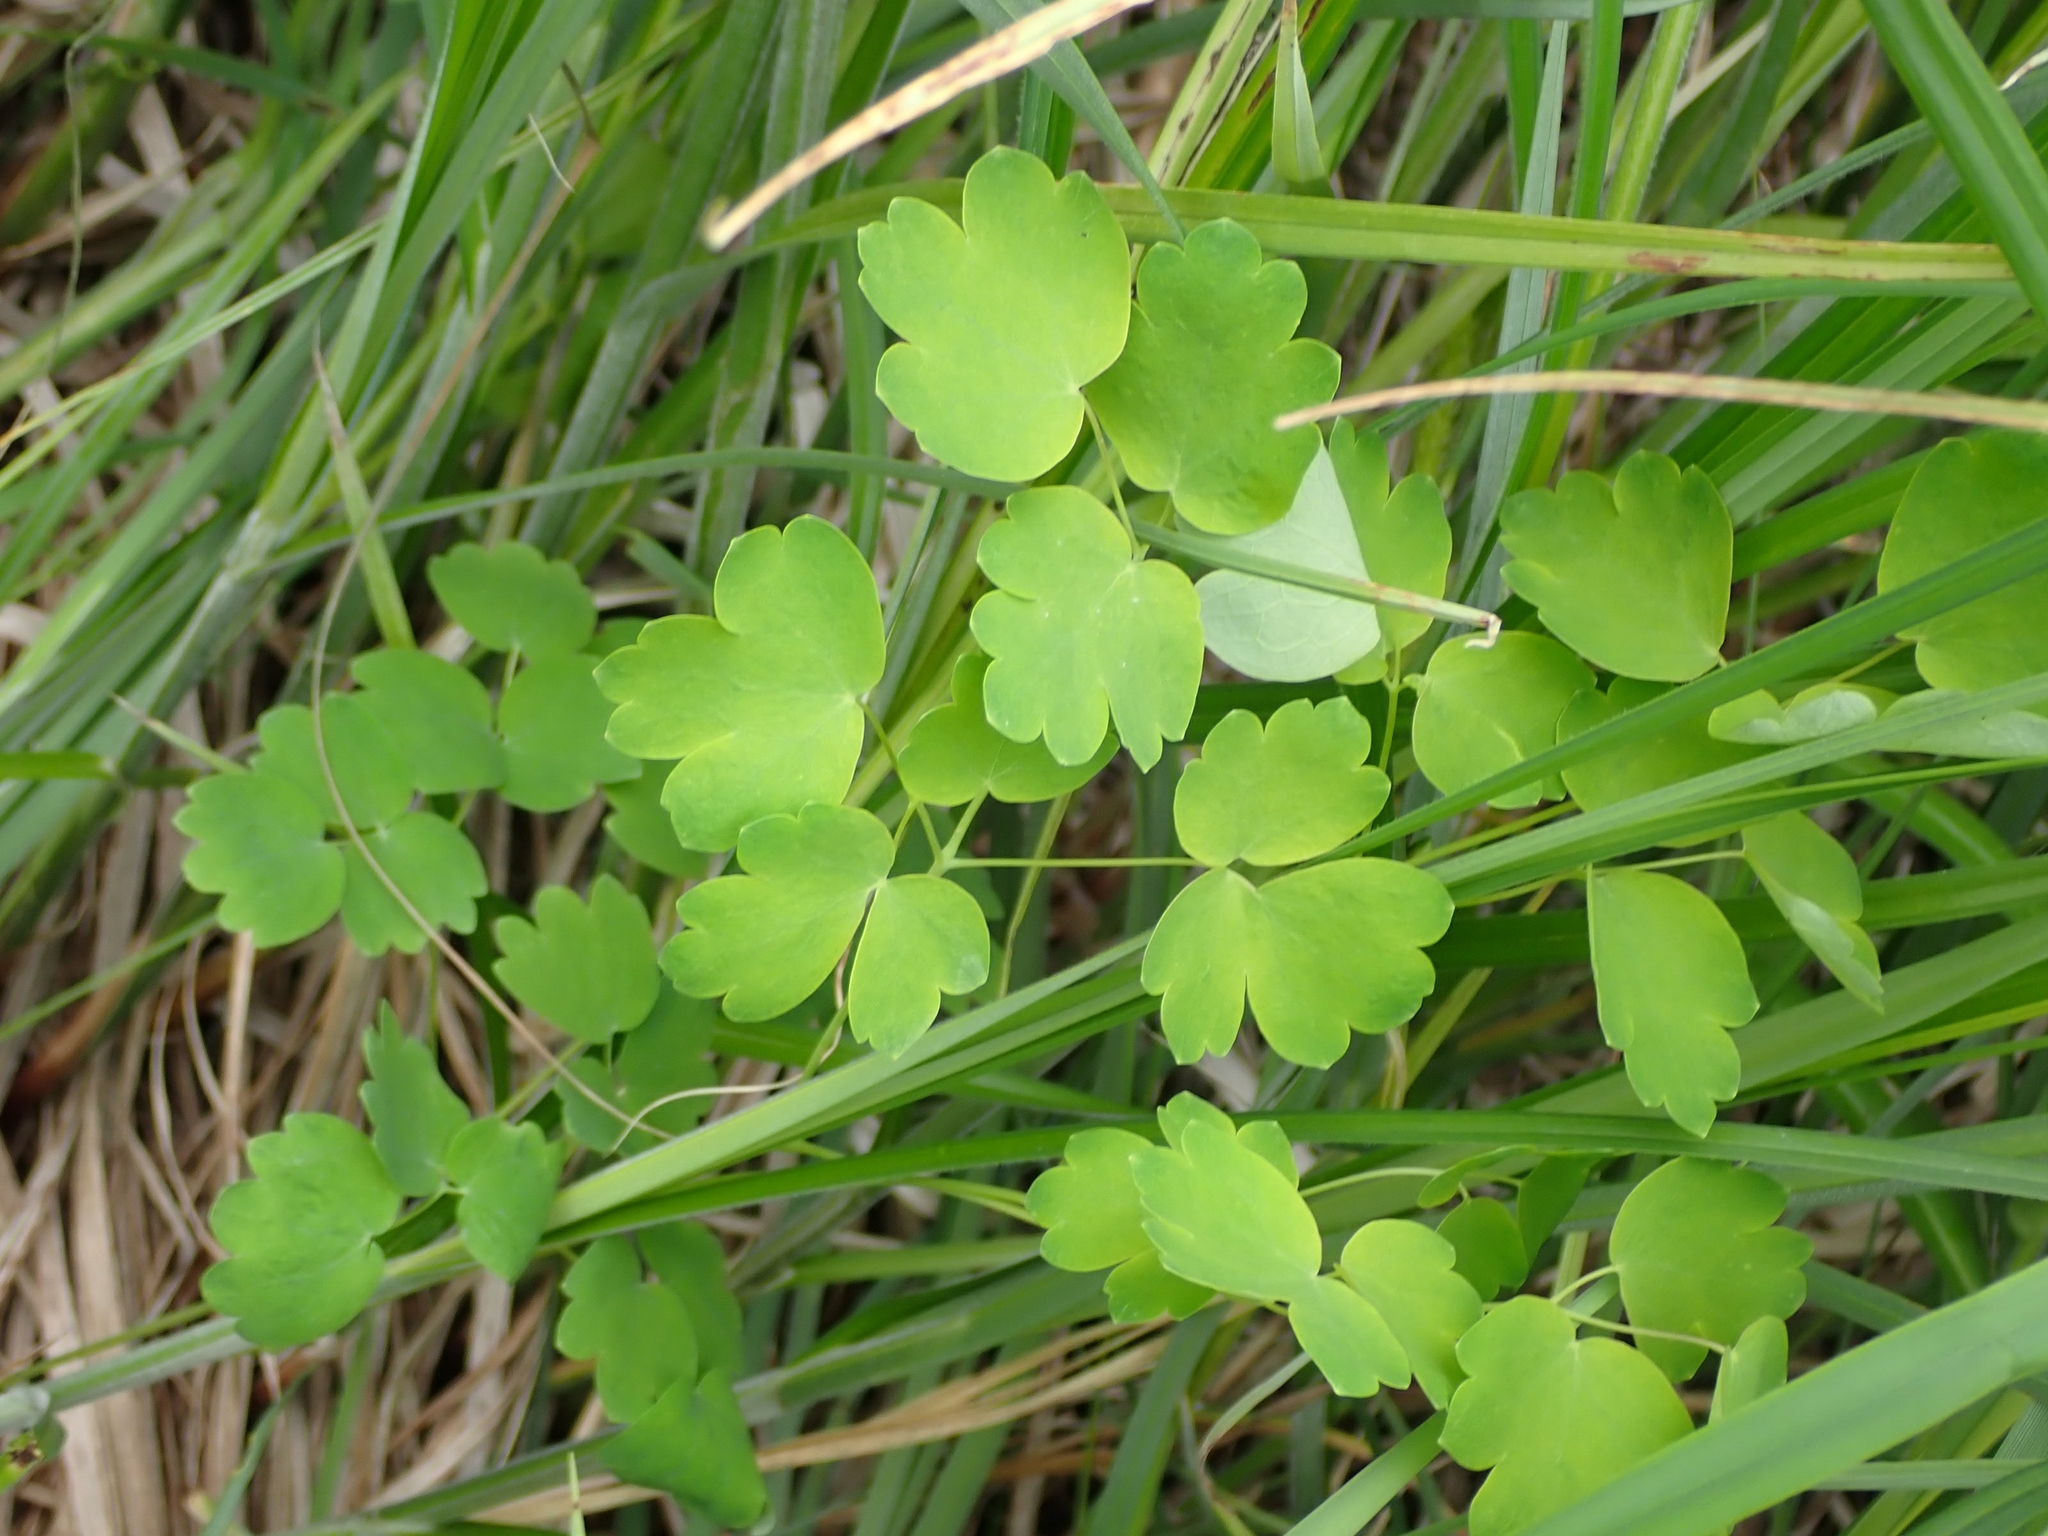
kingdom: Plantae
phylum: Tracheophyta
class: Magnoliopsida
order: Ranunculales
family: Ranunculaceae
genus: Thalictrum
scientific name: Thalictrum venulosum
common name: Early meadow-rue
